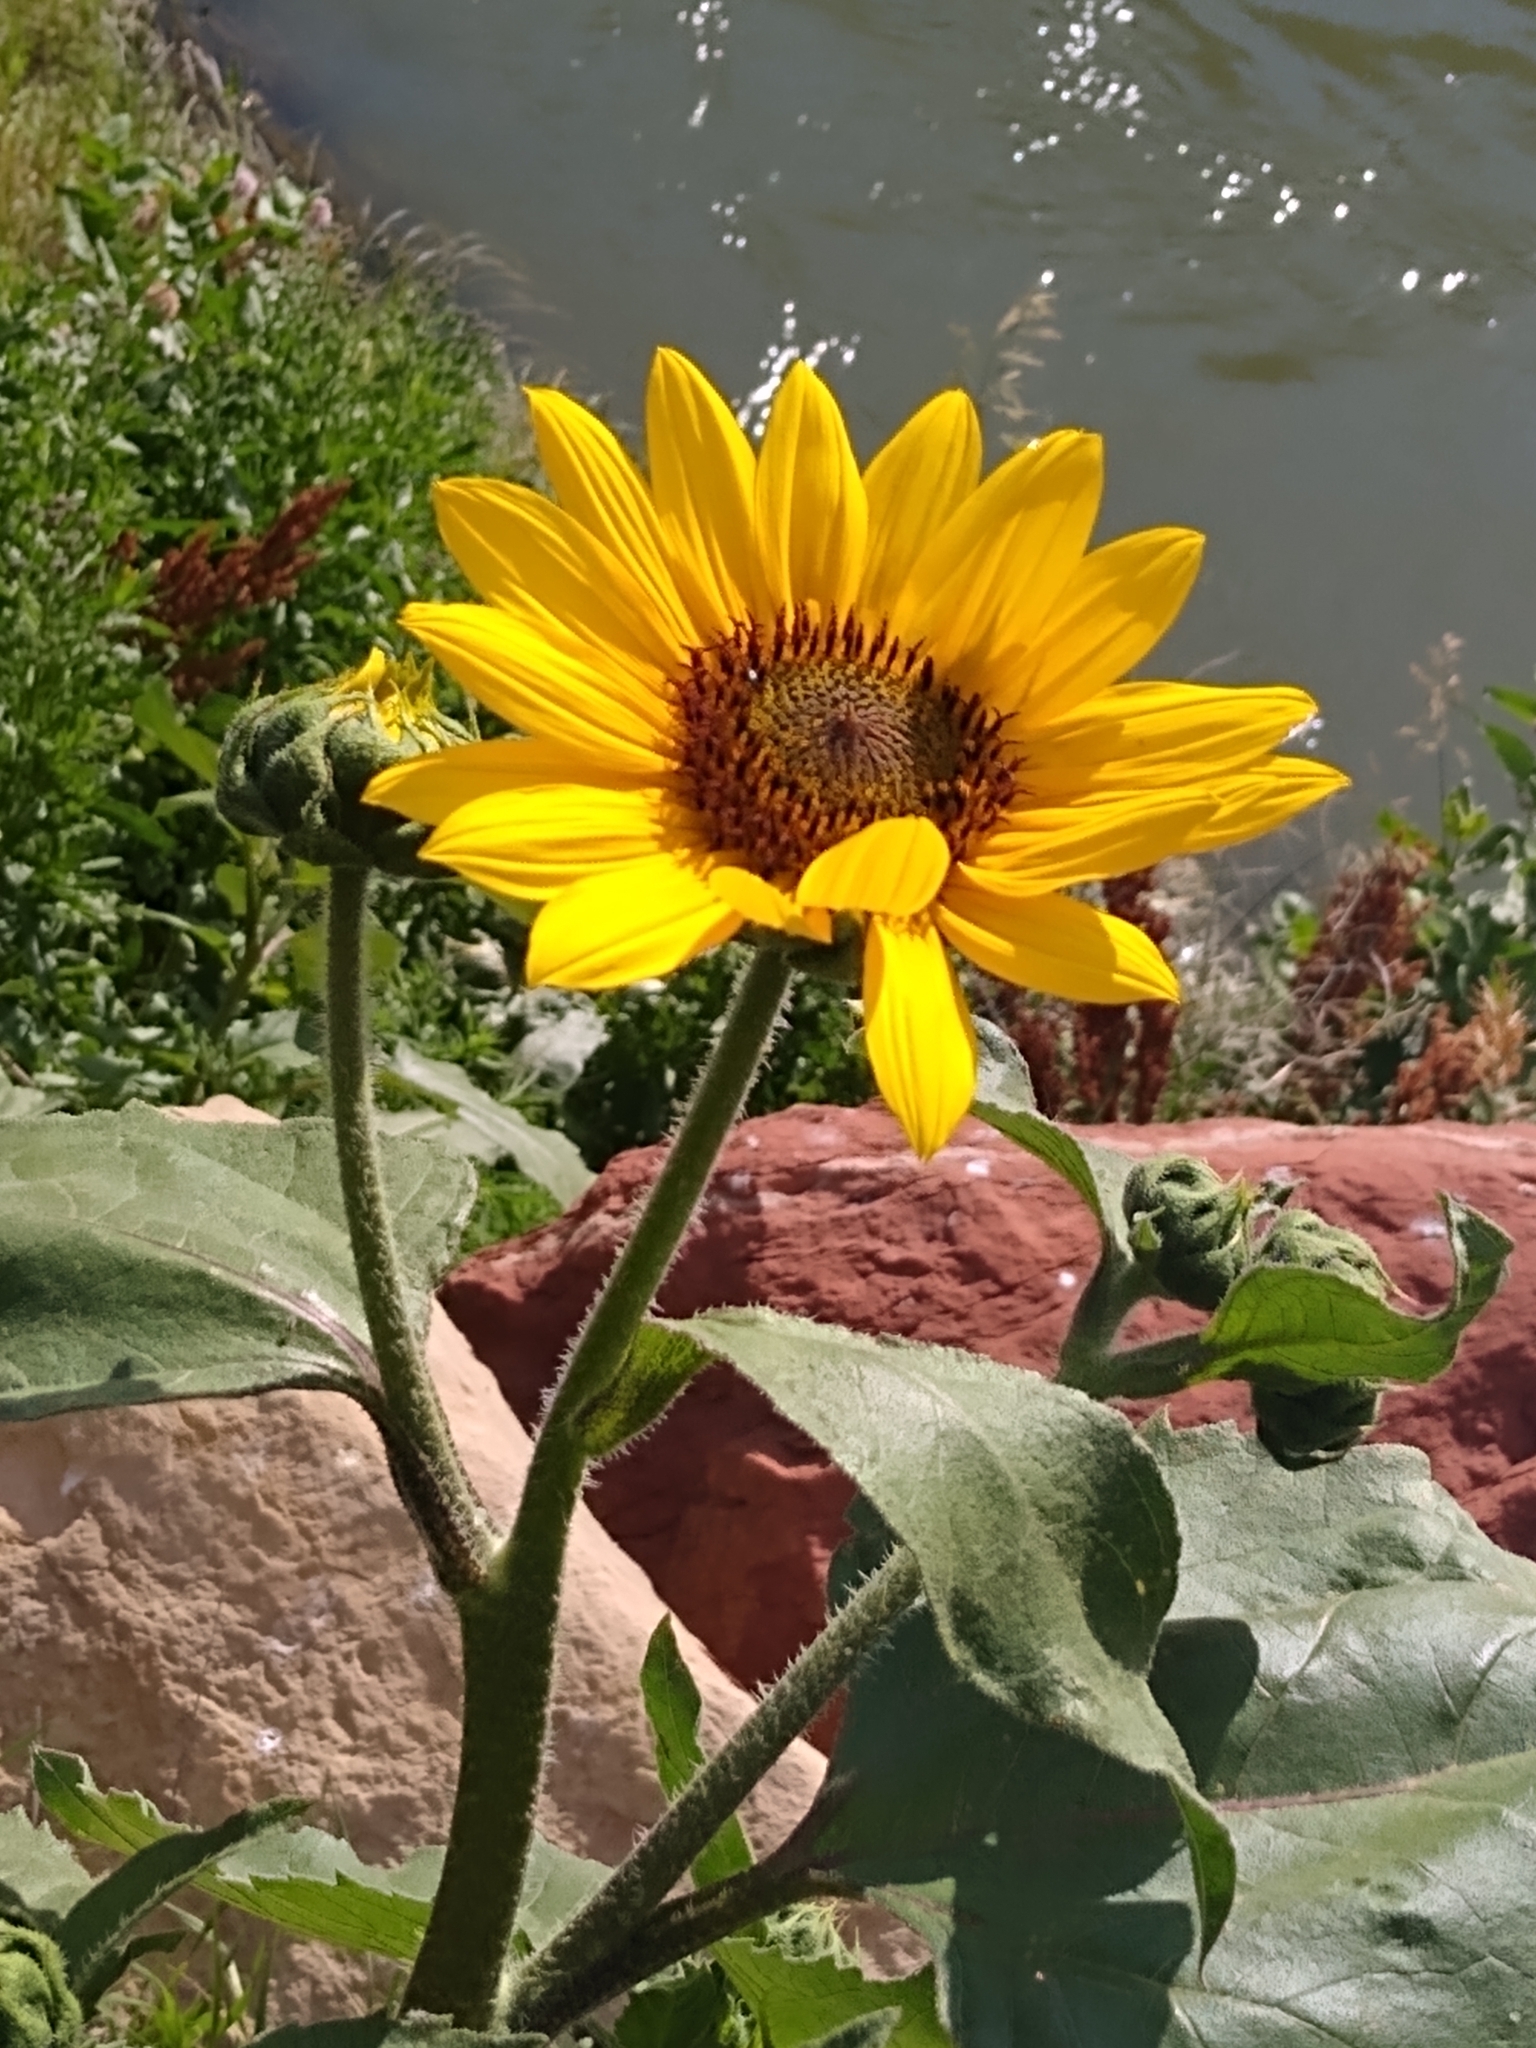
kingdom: Plantae
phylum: Tracheophyta
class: Magnoliopsida
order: Asterales
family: Asteraceae
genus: Helianthus
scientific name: Helianthus annuus
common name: Sunflower
